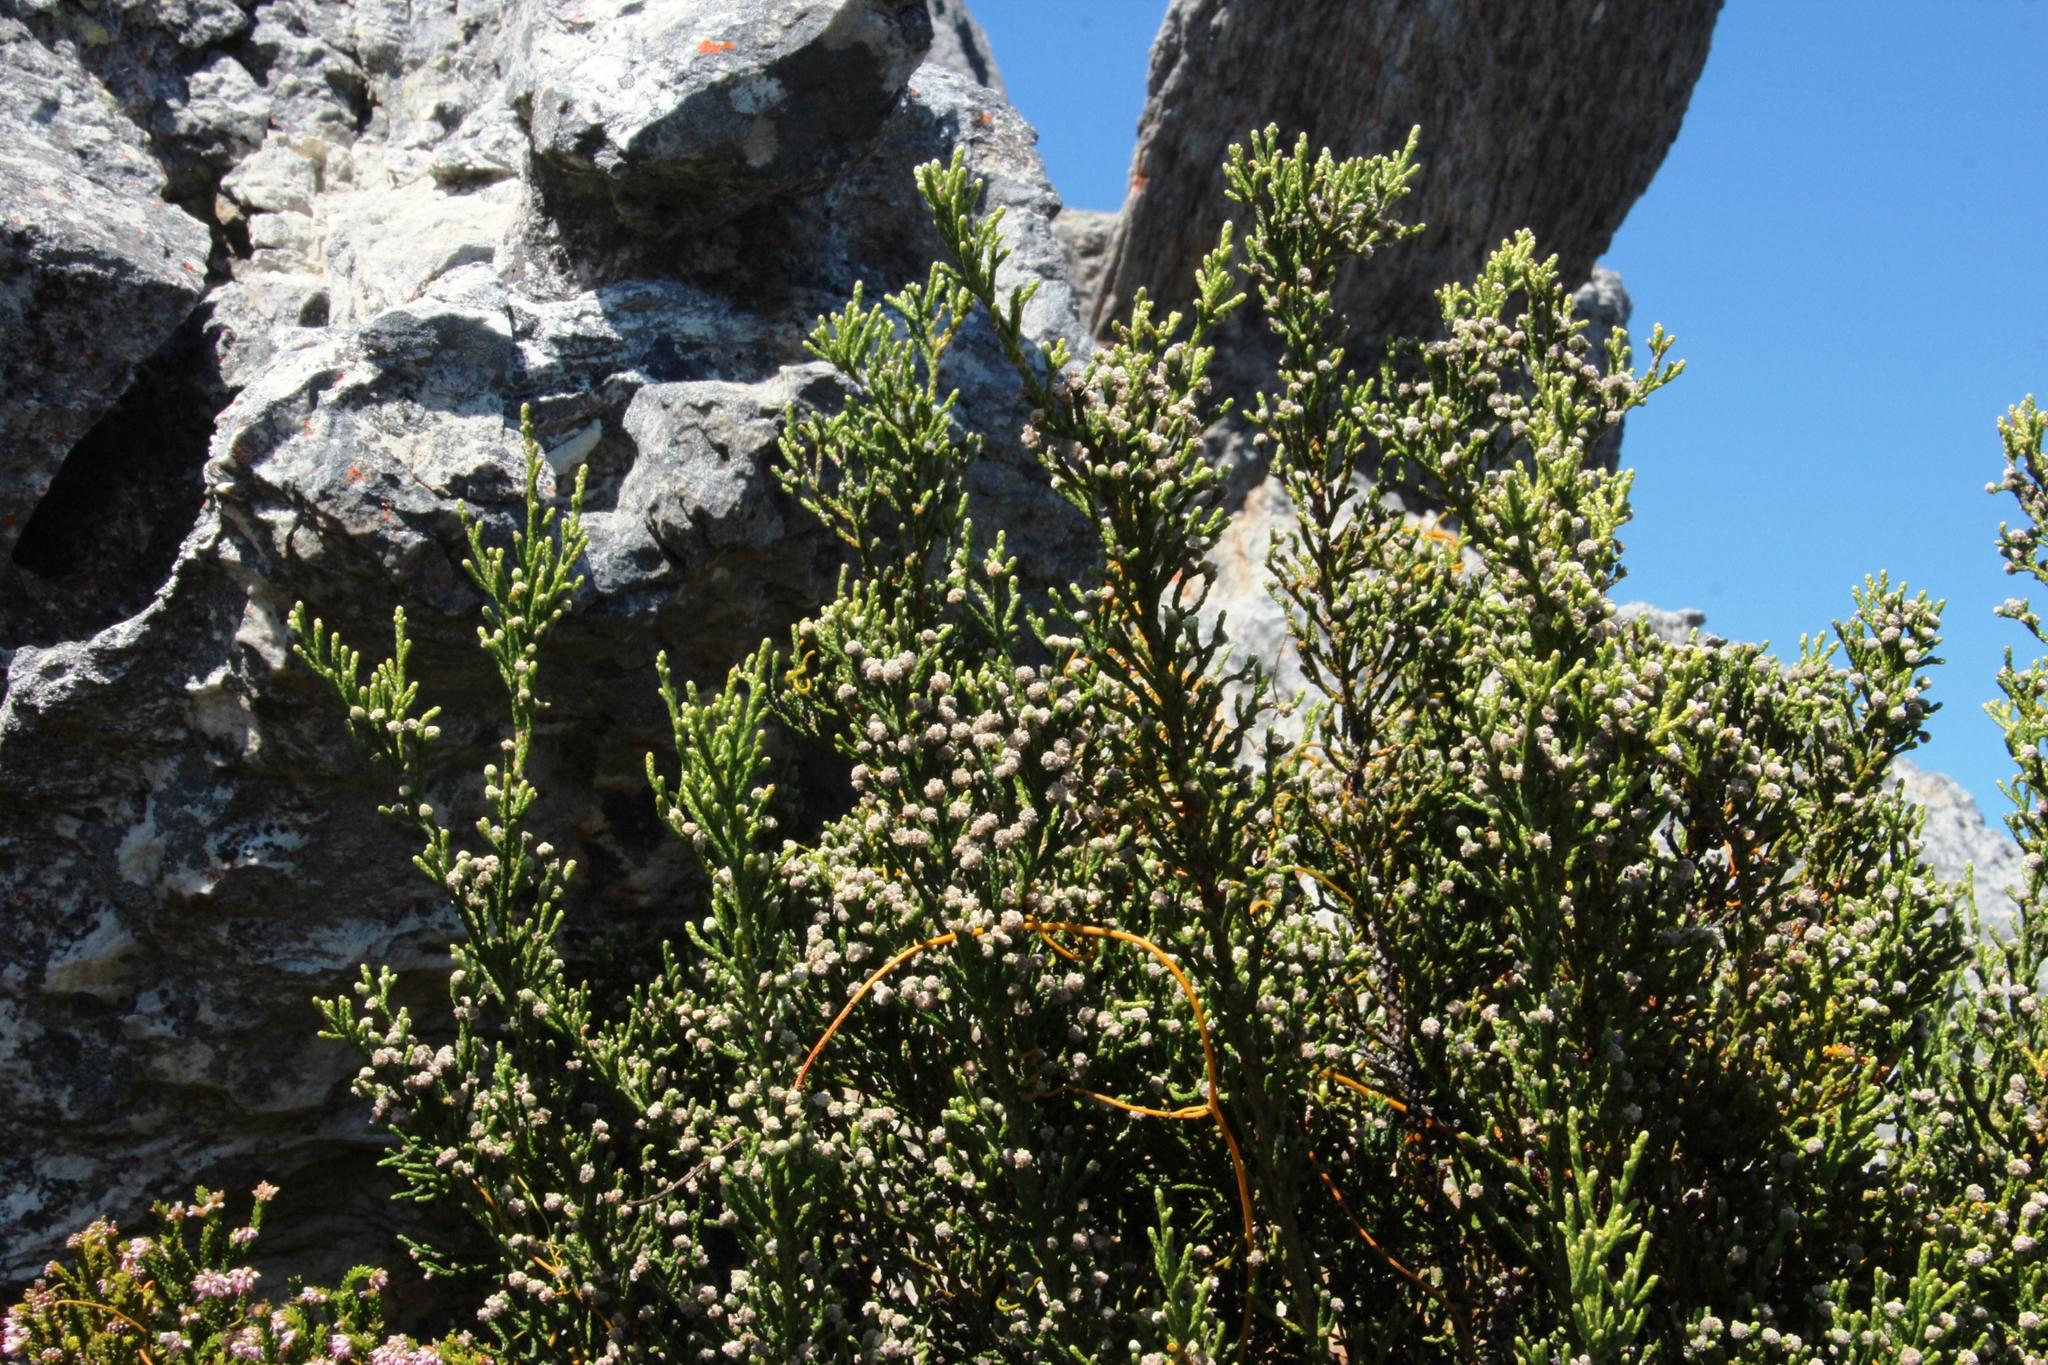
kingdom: Plantae
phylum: Tracheophyta
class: Magnoliopsida
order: Bruniales
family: Bruniaceae
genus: Brunia
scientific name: Brunia microphylla
